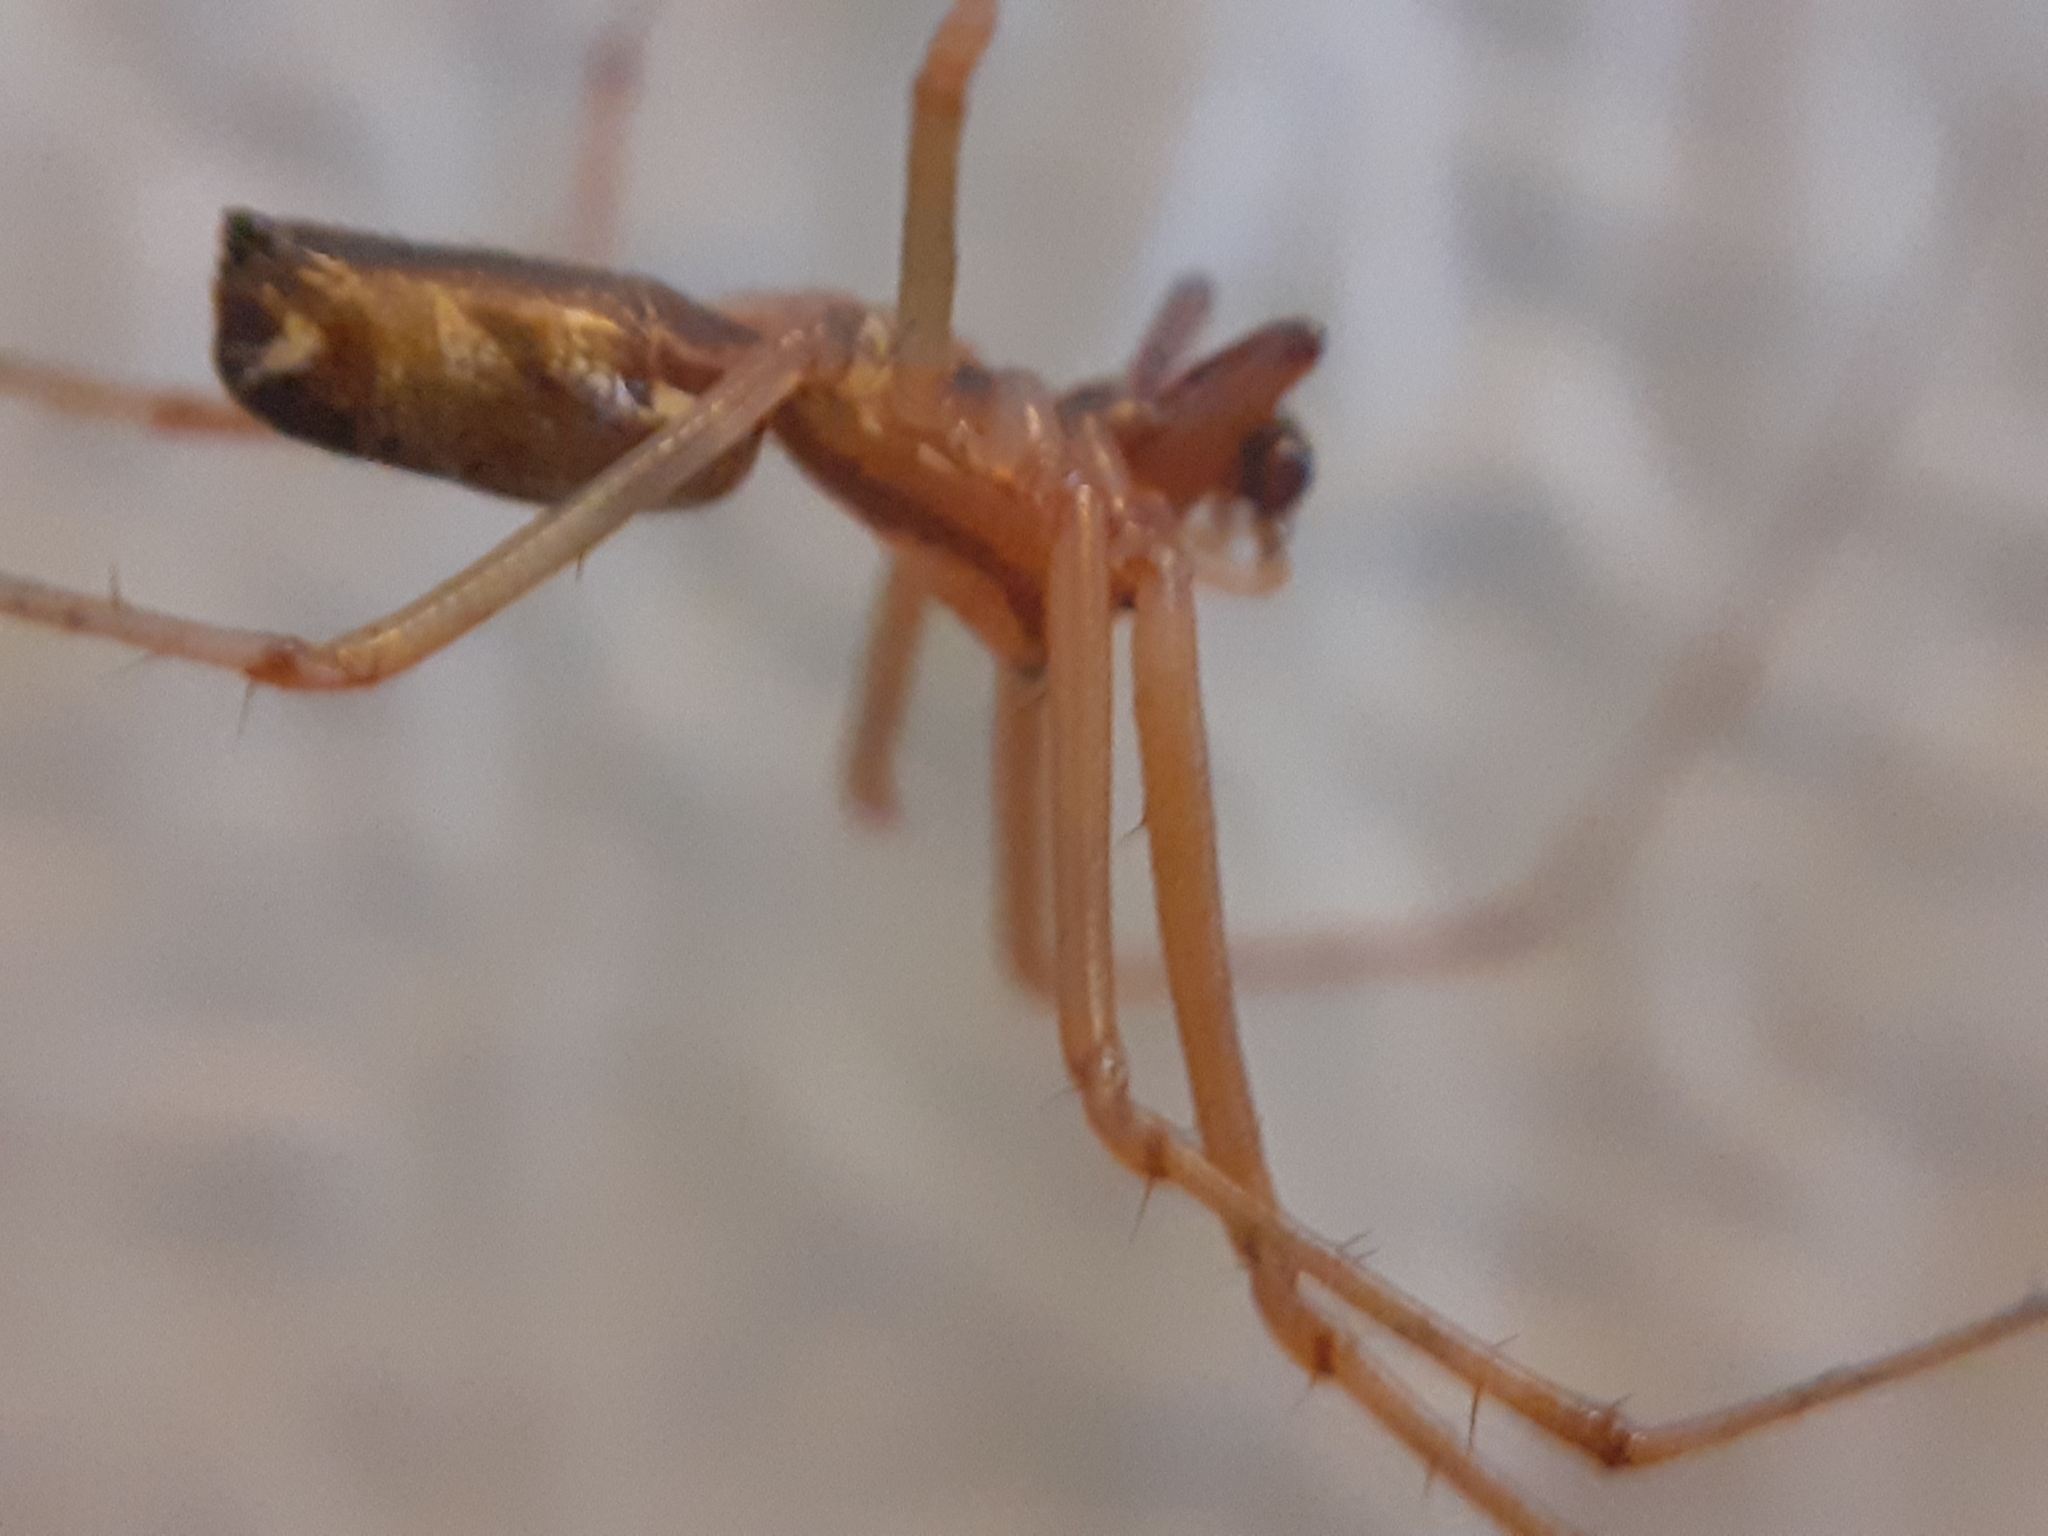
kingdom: Animalia
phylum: Arthropoda
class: Arachnida
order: Araneae
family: Linyphiidae
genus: Linyphia
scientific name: Linyphia triangularis
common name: Money spider
